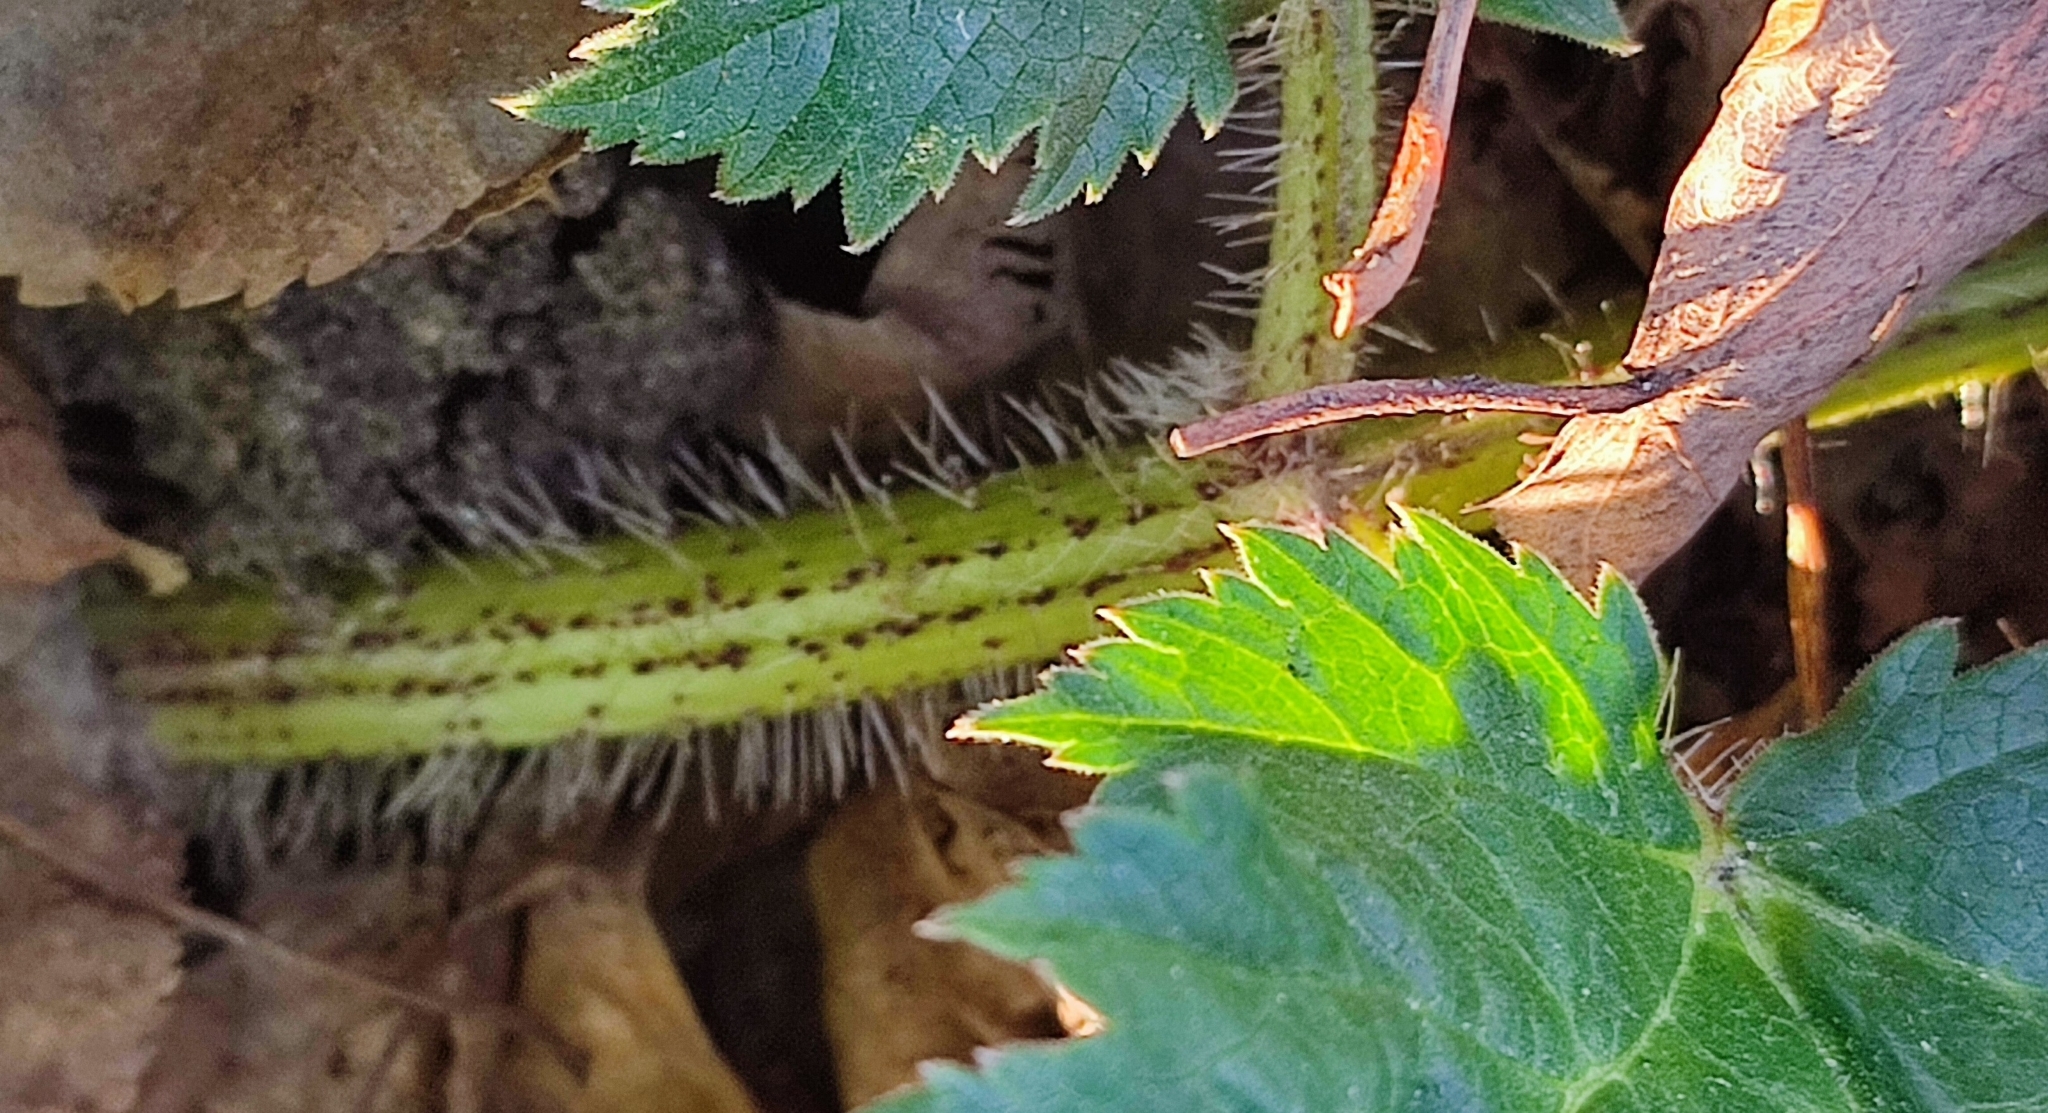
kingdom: Plantae
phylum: Tracheophyta
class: Magnoliopsida
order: Apiales
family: Apiaceae
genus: Heracleum
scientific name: Heracleum sosnowskyi
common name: Sosnowsky's hogweed
